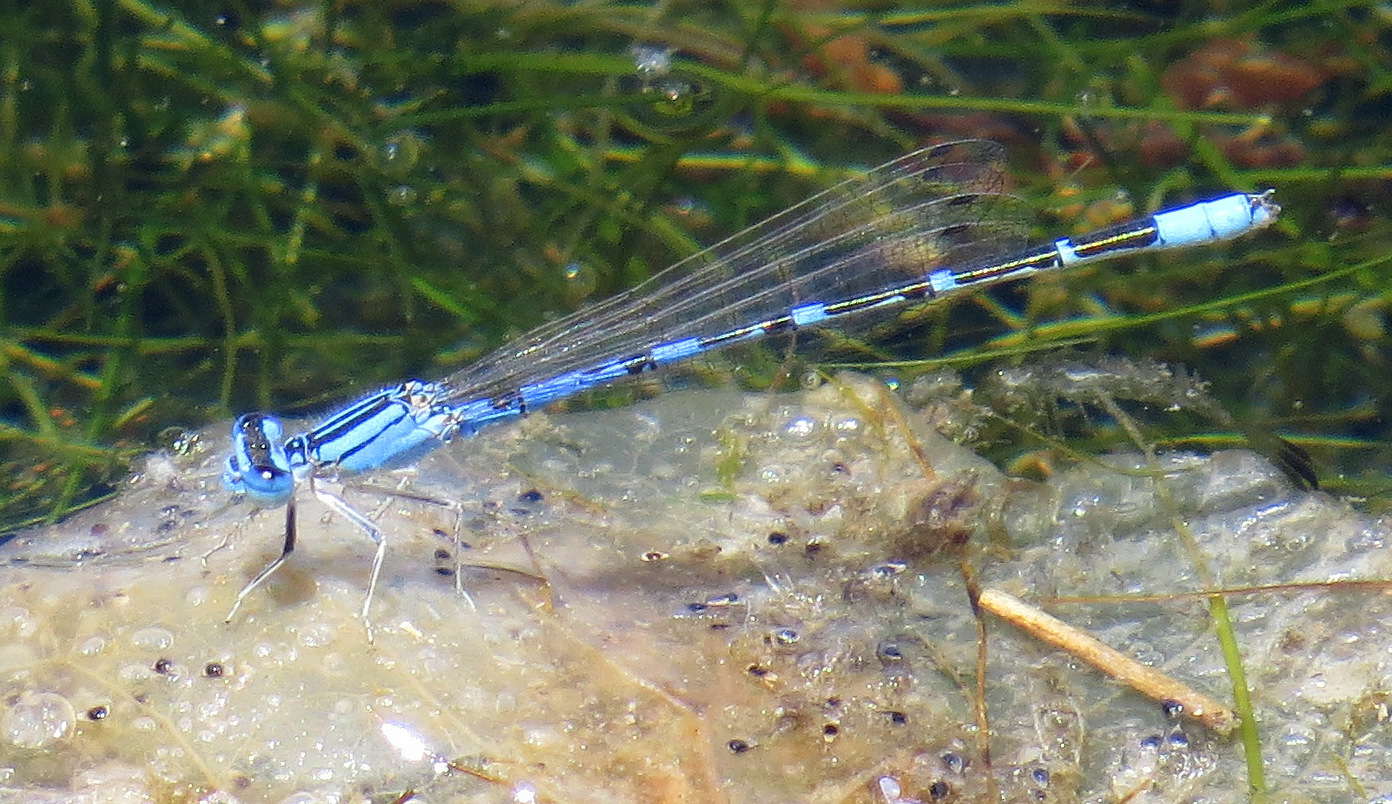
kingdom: Animalia
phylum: Arthropoda
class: Insecta
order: Odonata
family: Coenagrionidae
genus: Enallagma
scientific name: Enallagma praevarum
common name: Arroyo bluet
